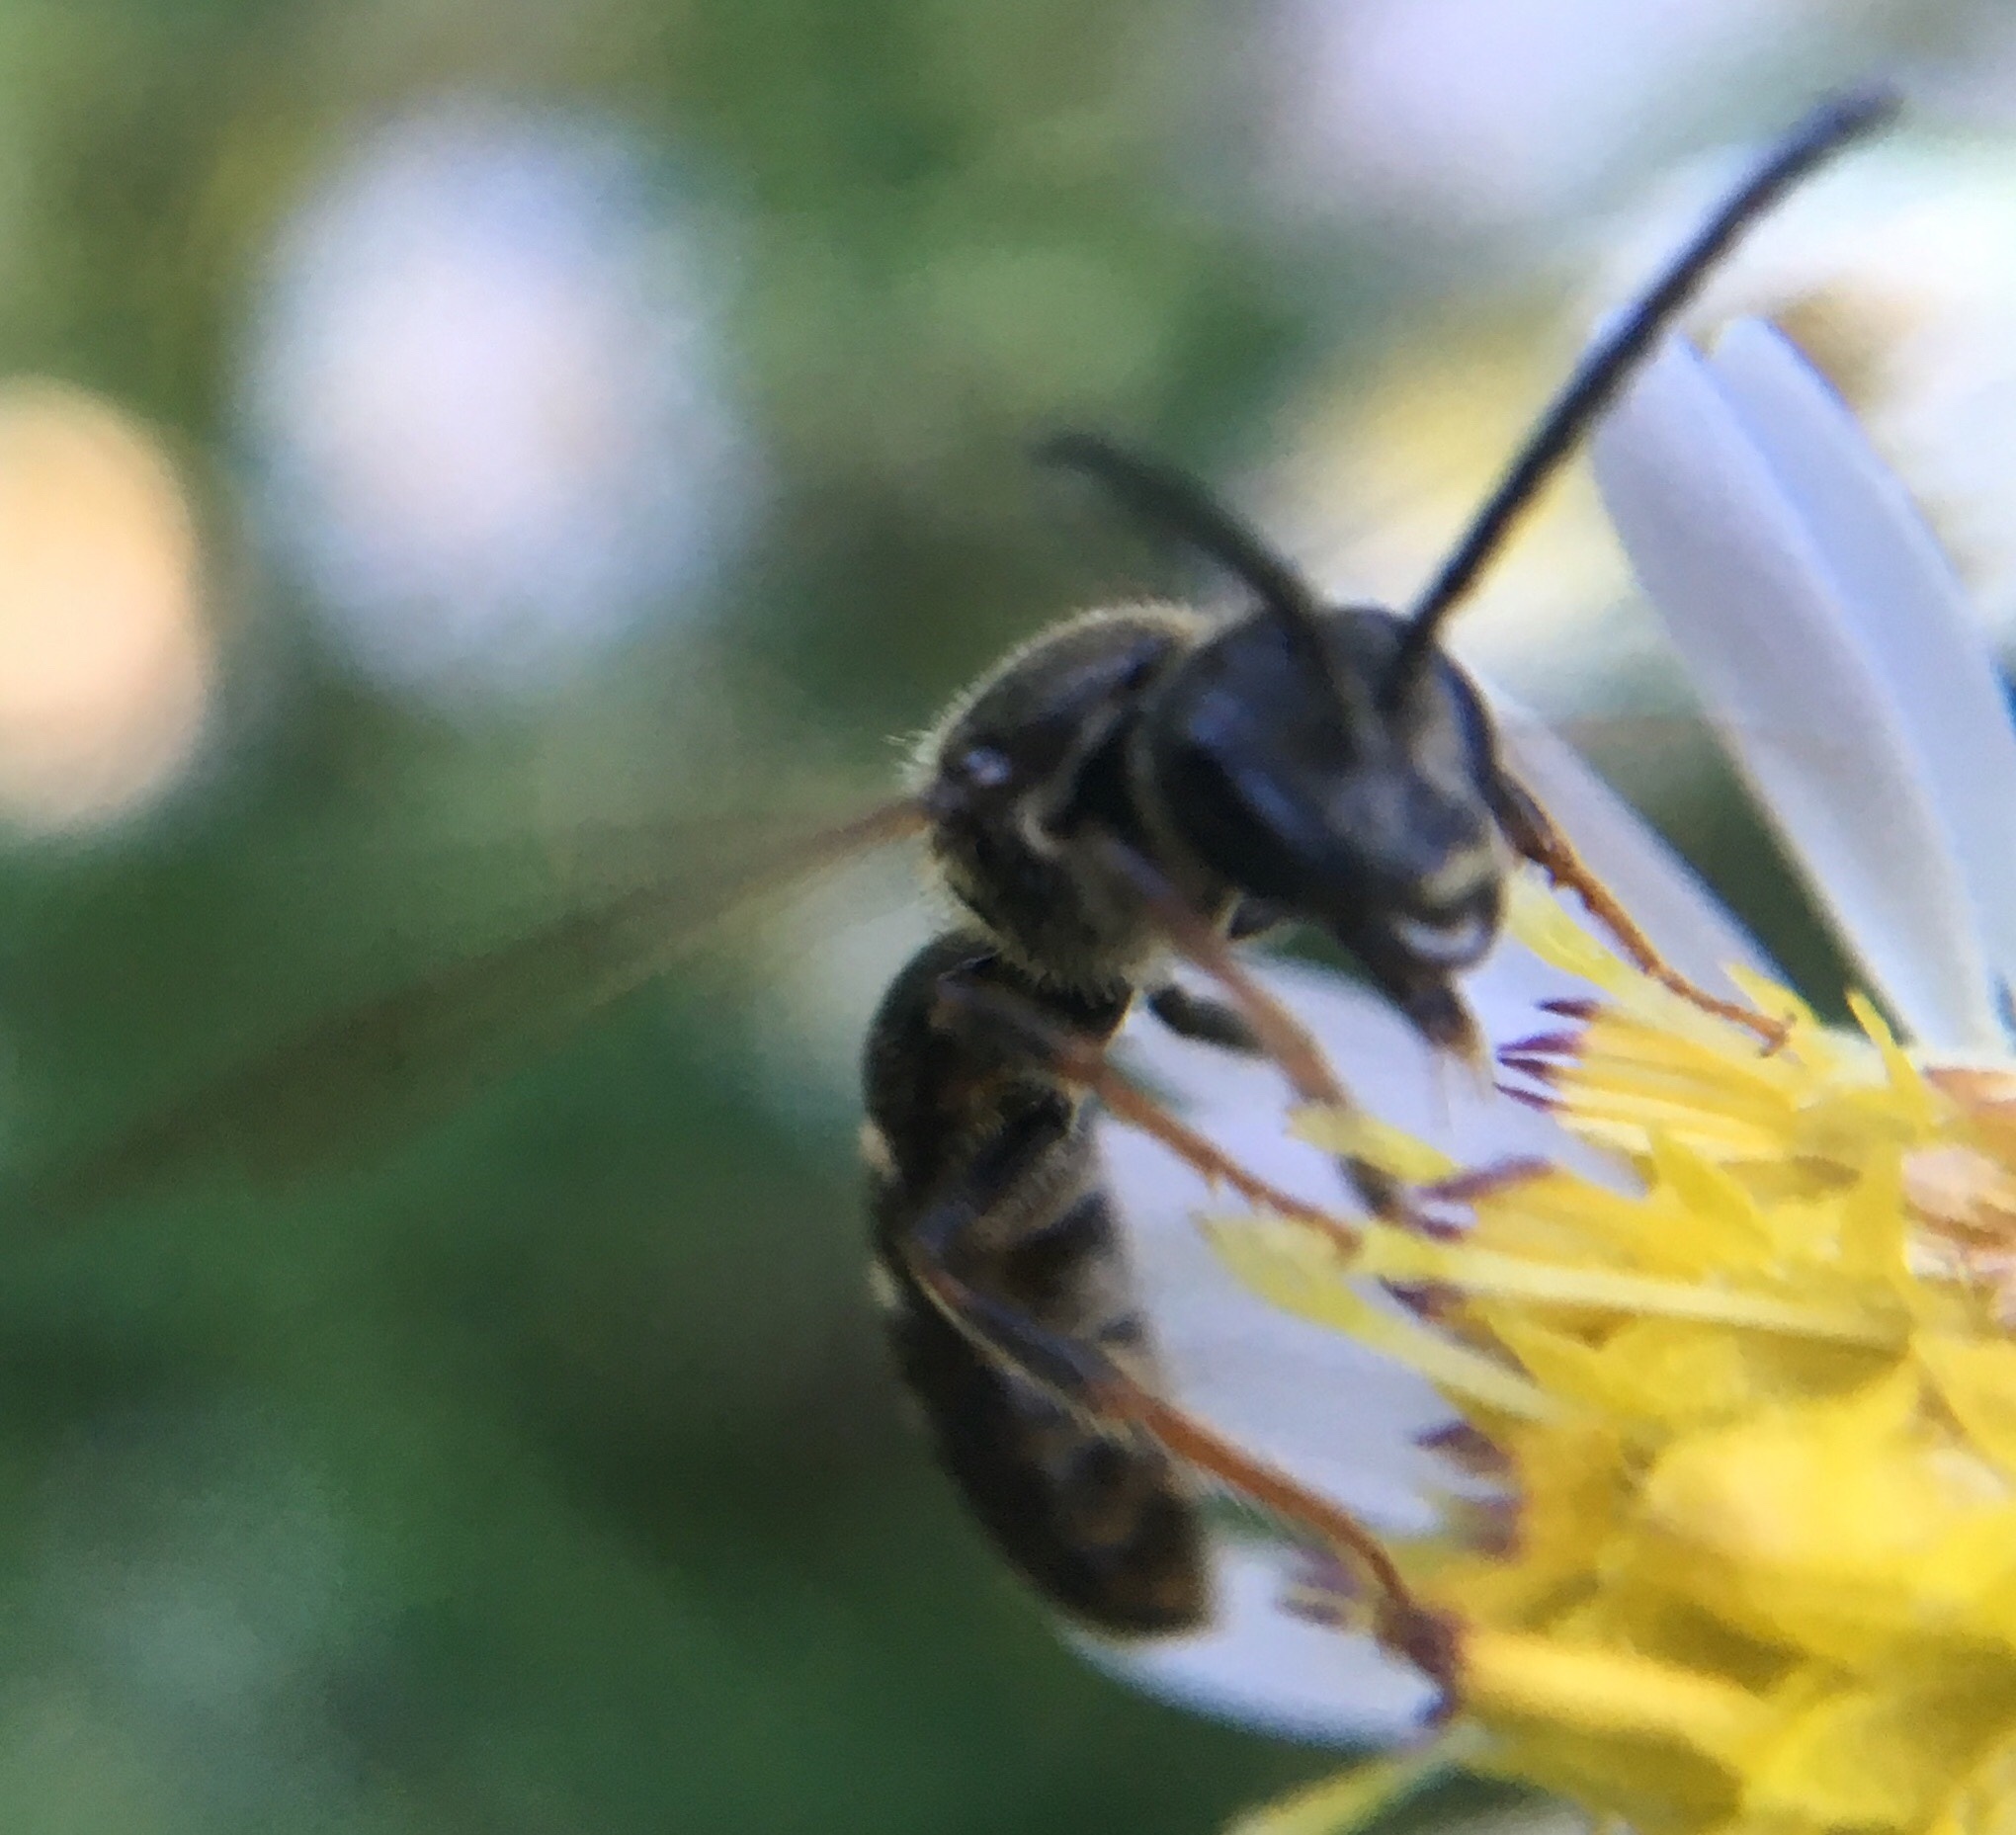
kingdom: Animalia
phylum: Arthropoda
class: Insecta
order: Hymenoptera
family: Halictidae
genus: Lasioglossum
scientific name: Lasioglossum fuscipenne
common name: Brown-winged sweat bee
